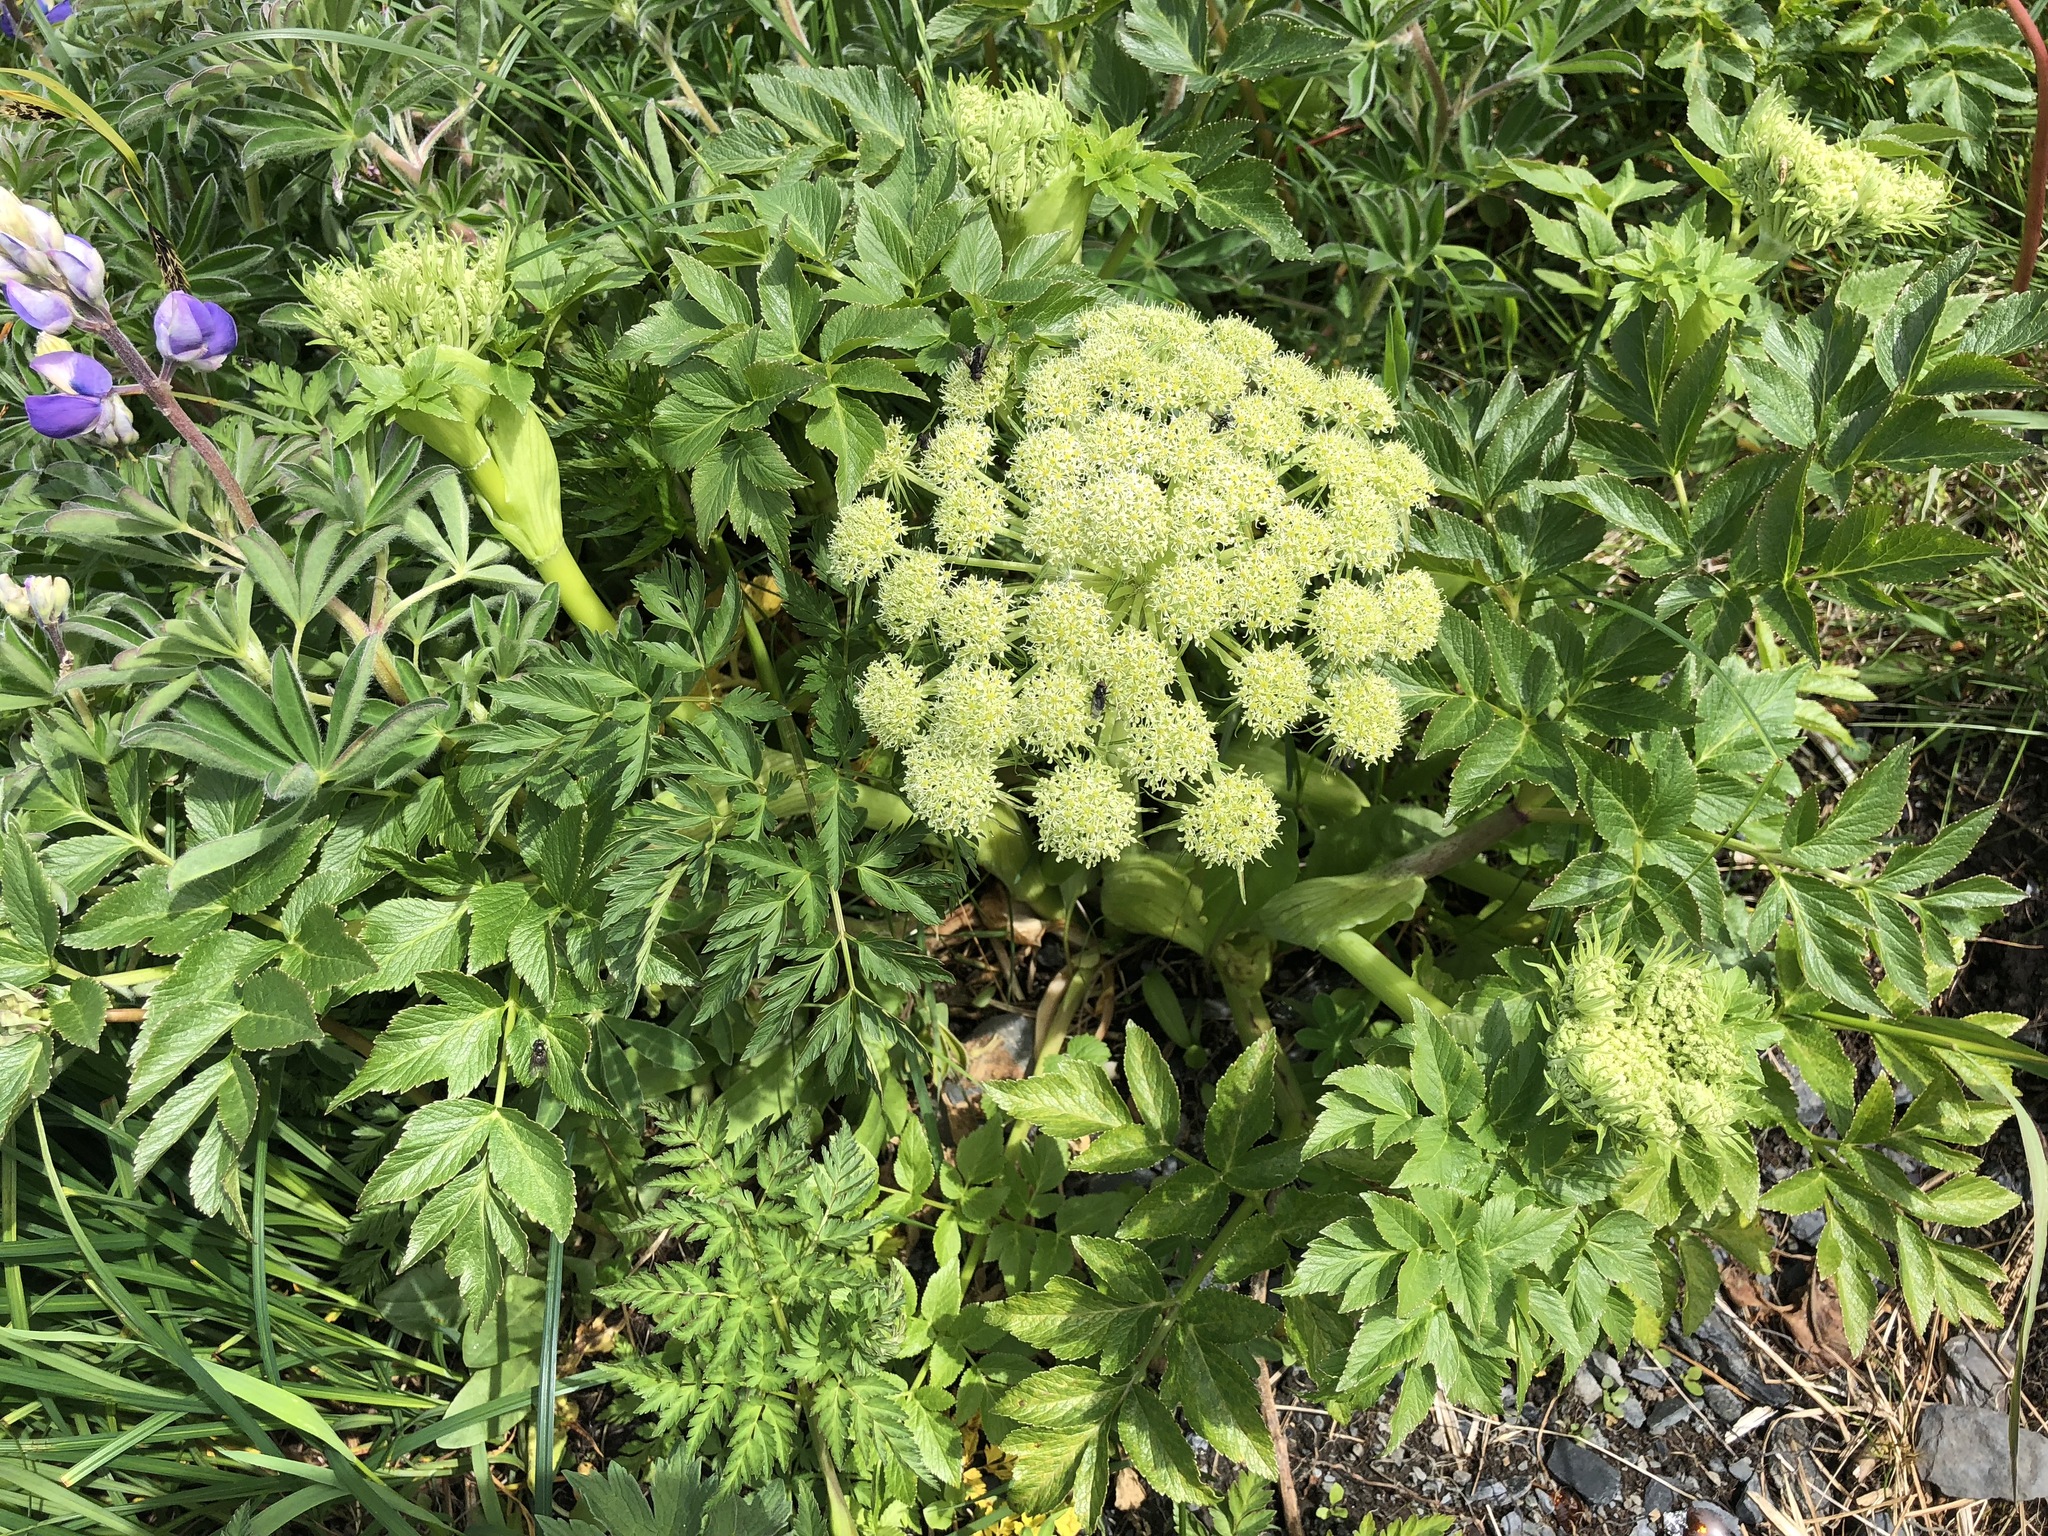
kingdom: Plantae
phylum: Tracheophyta
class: Magnoliopsida
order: Apiales
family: Apiaceae
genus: Angelica
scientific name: Angelica lucida
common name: Seabeach angelica
